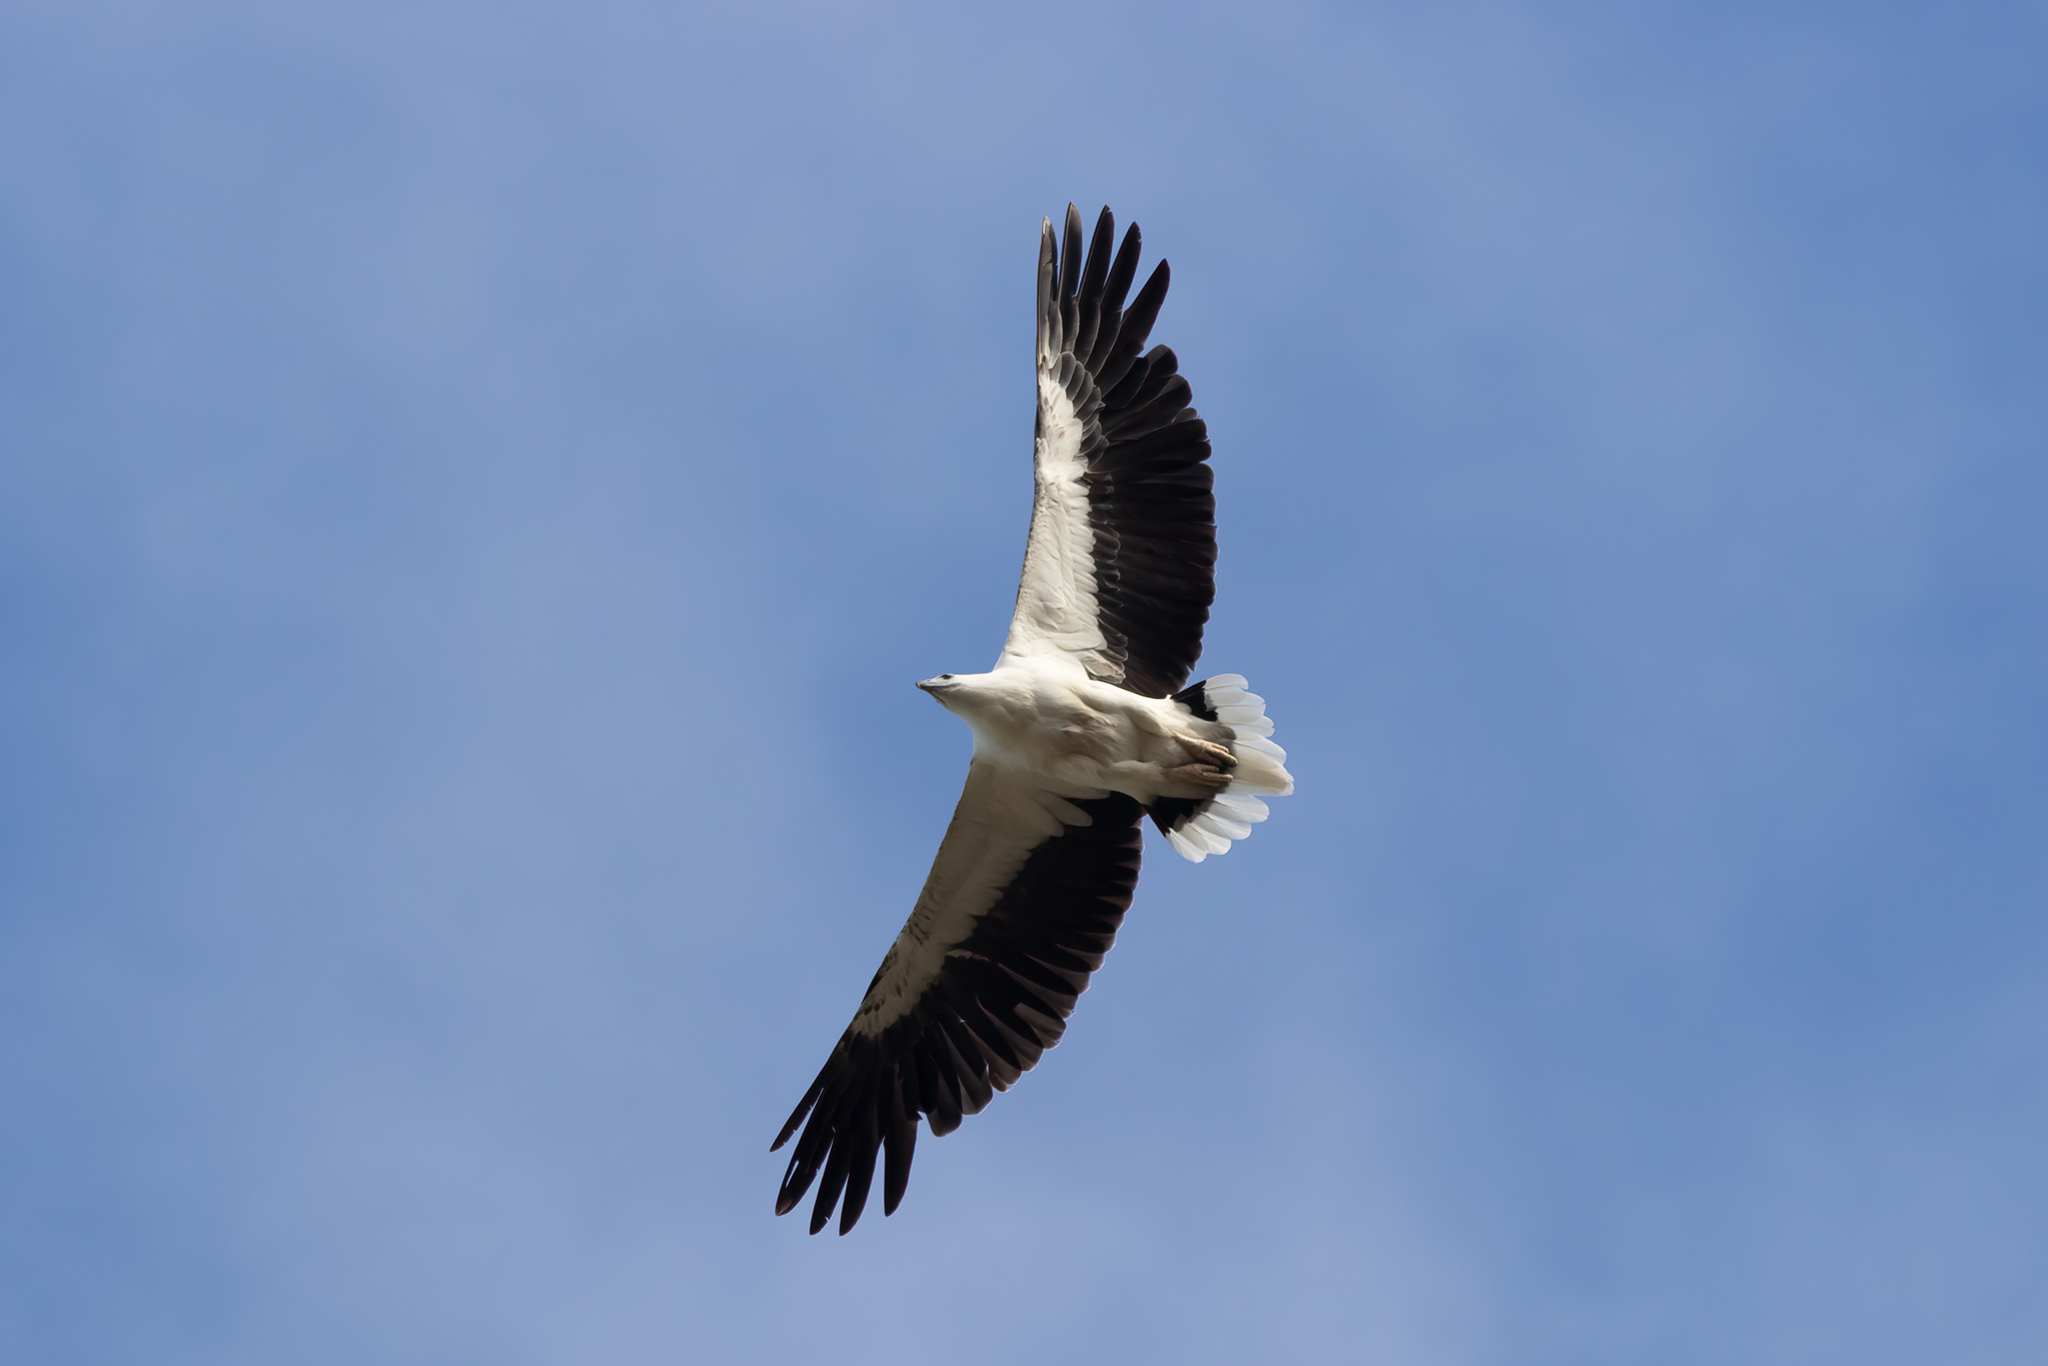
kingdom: Animalia
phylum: Chordata
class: Aves
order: Accipitriformes
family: Accipitridae
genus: Haliaeetus
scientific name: Haliaeetus leucogaster
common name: White-bellied sea eagle
